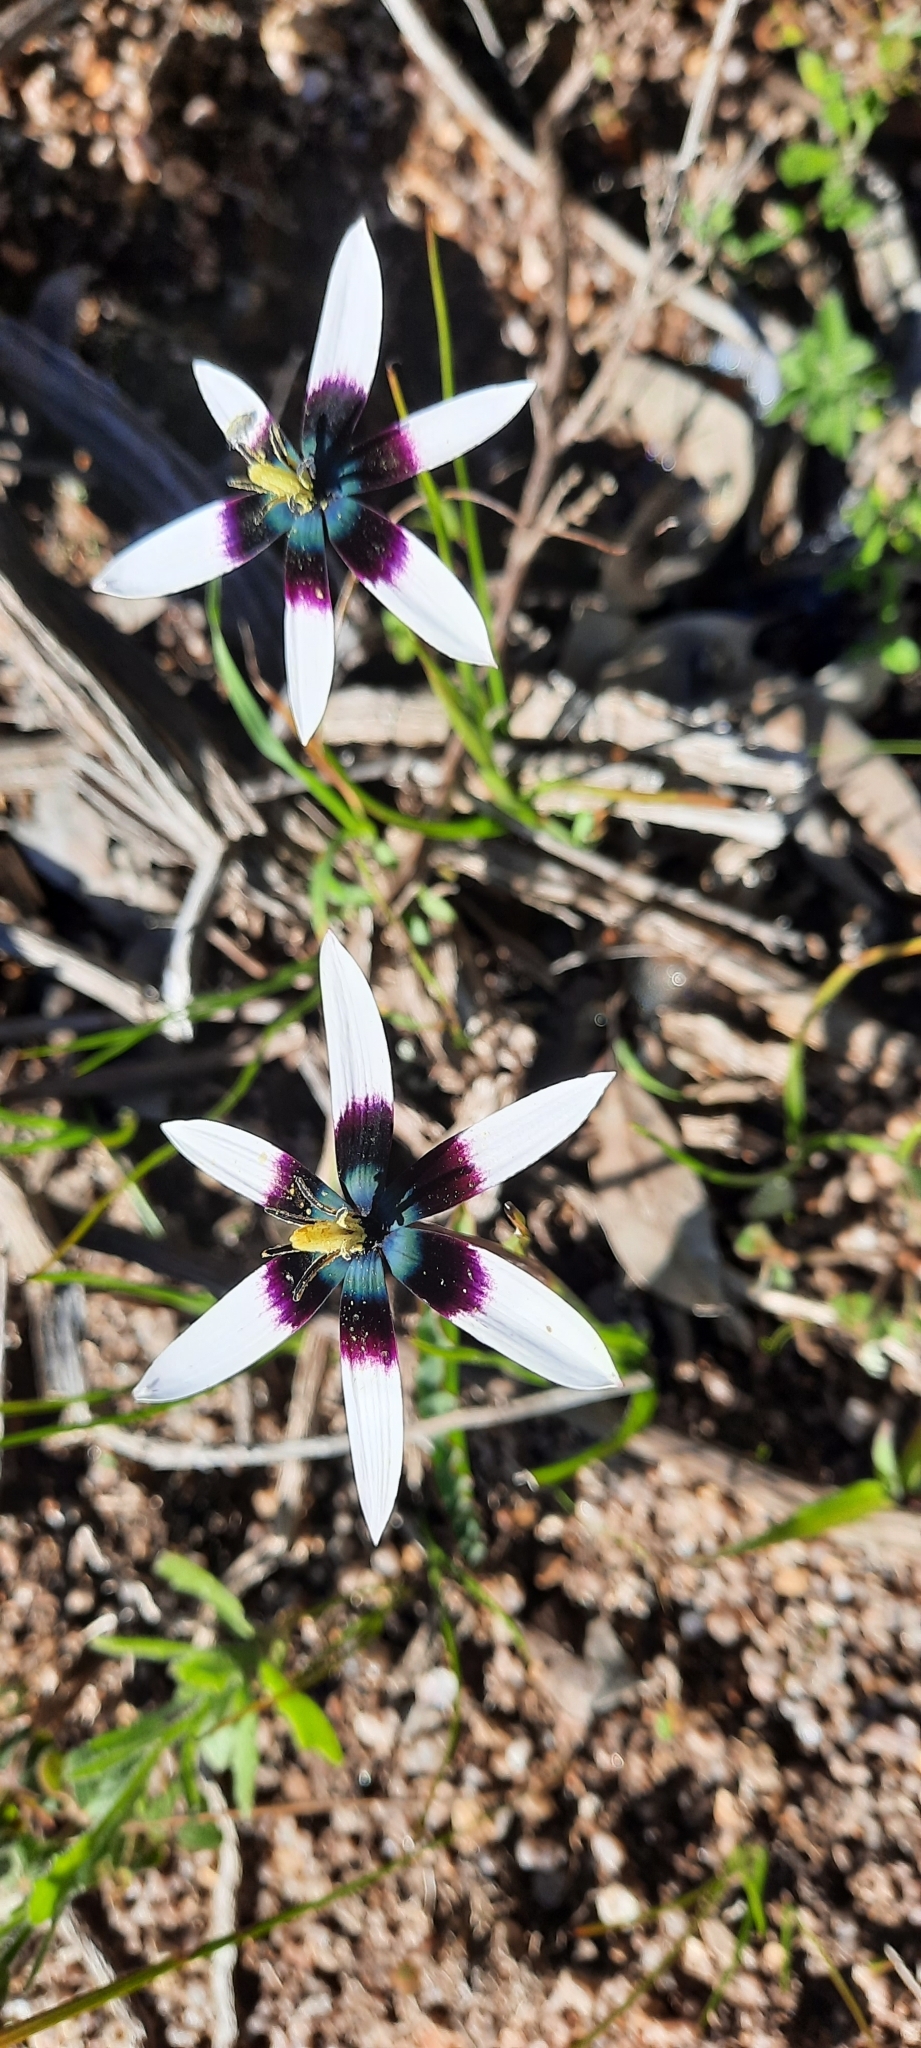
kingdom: Plantae
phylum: Tracheophyta
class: Liliopsida
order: Asparagales
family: Hypoxidaceae
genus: Pauridia
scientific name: Pauridia capensis
